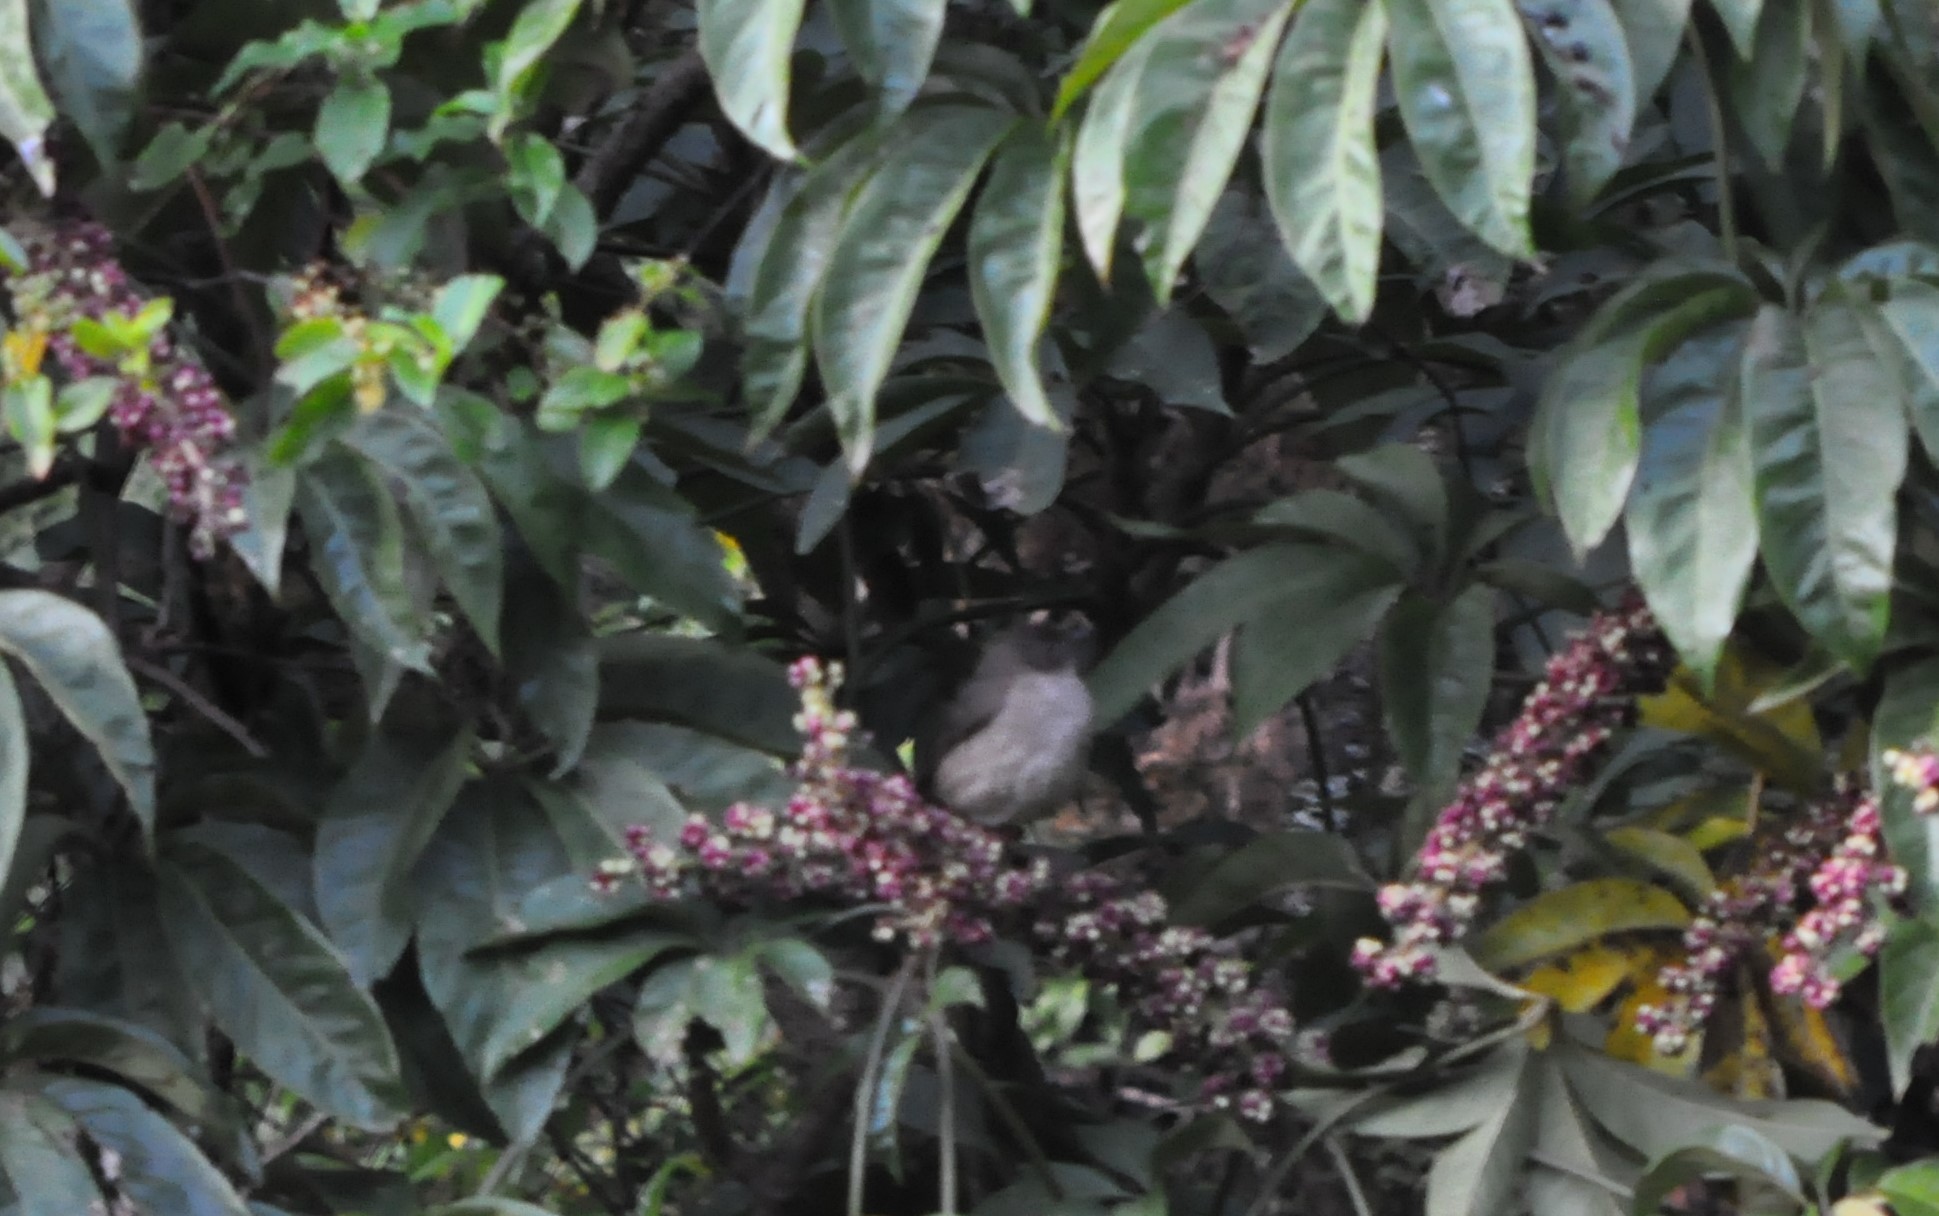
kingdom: Animalia
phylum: Chordata
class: Aves
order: Passeriformes
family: Turdidae
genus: Turdus
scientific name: Turdus plebejus
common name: Mountain thrush
